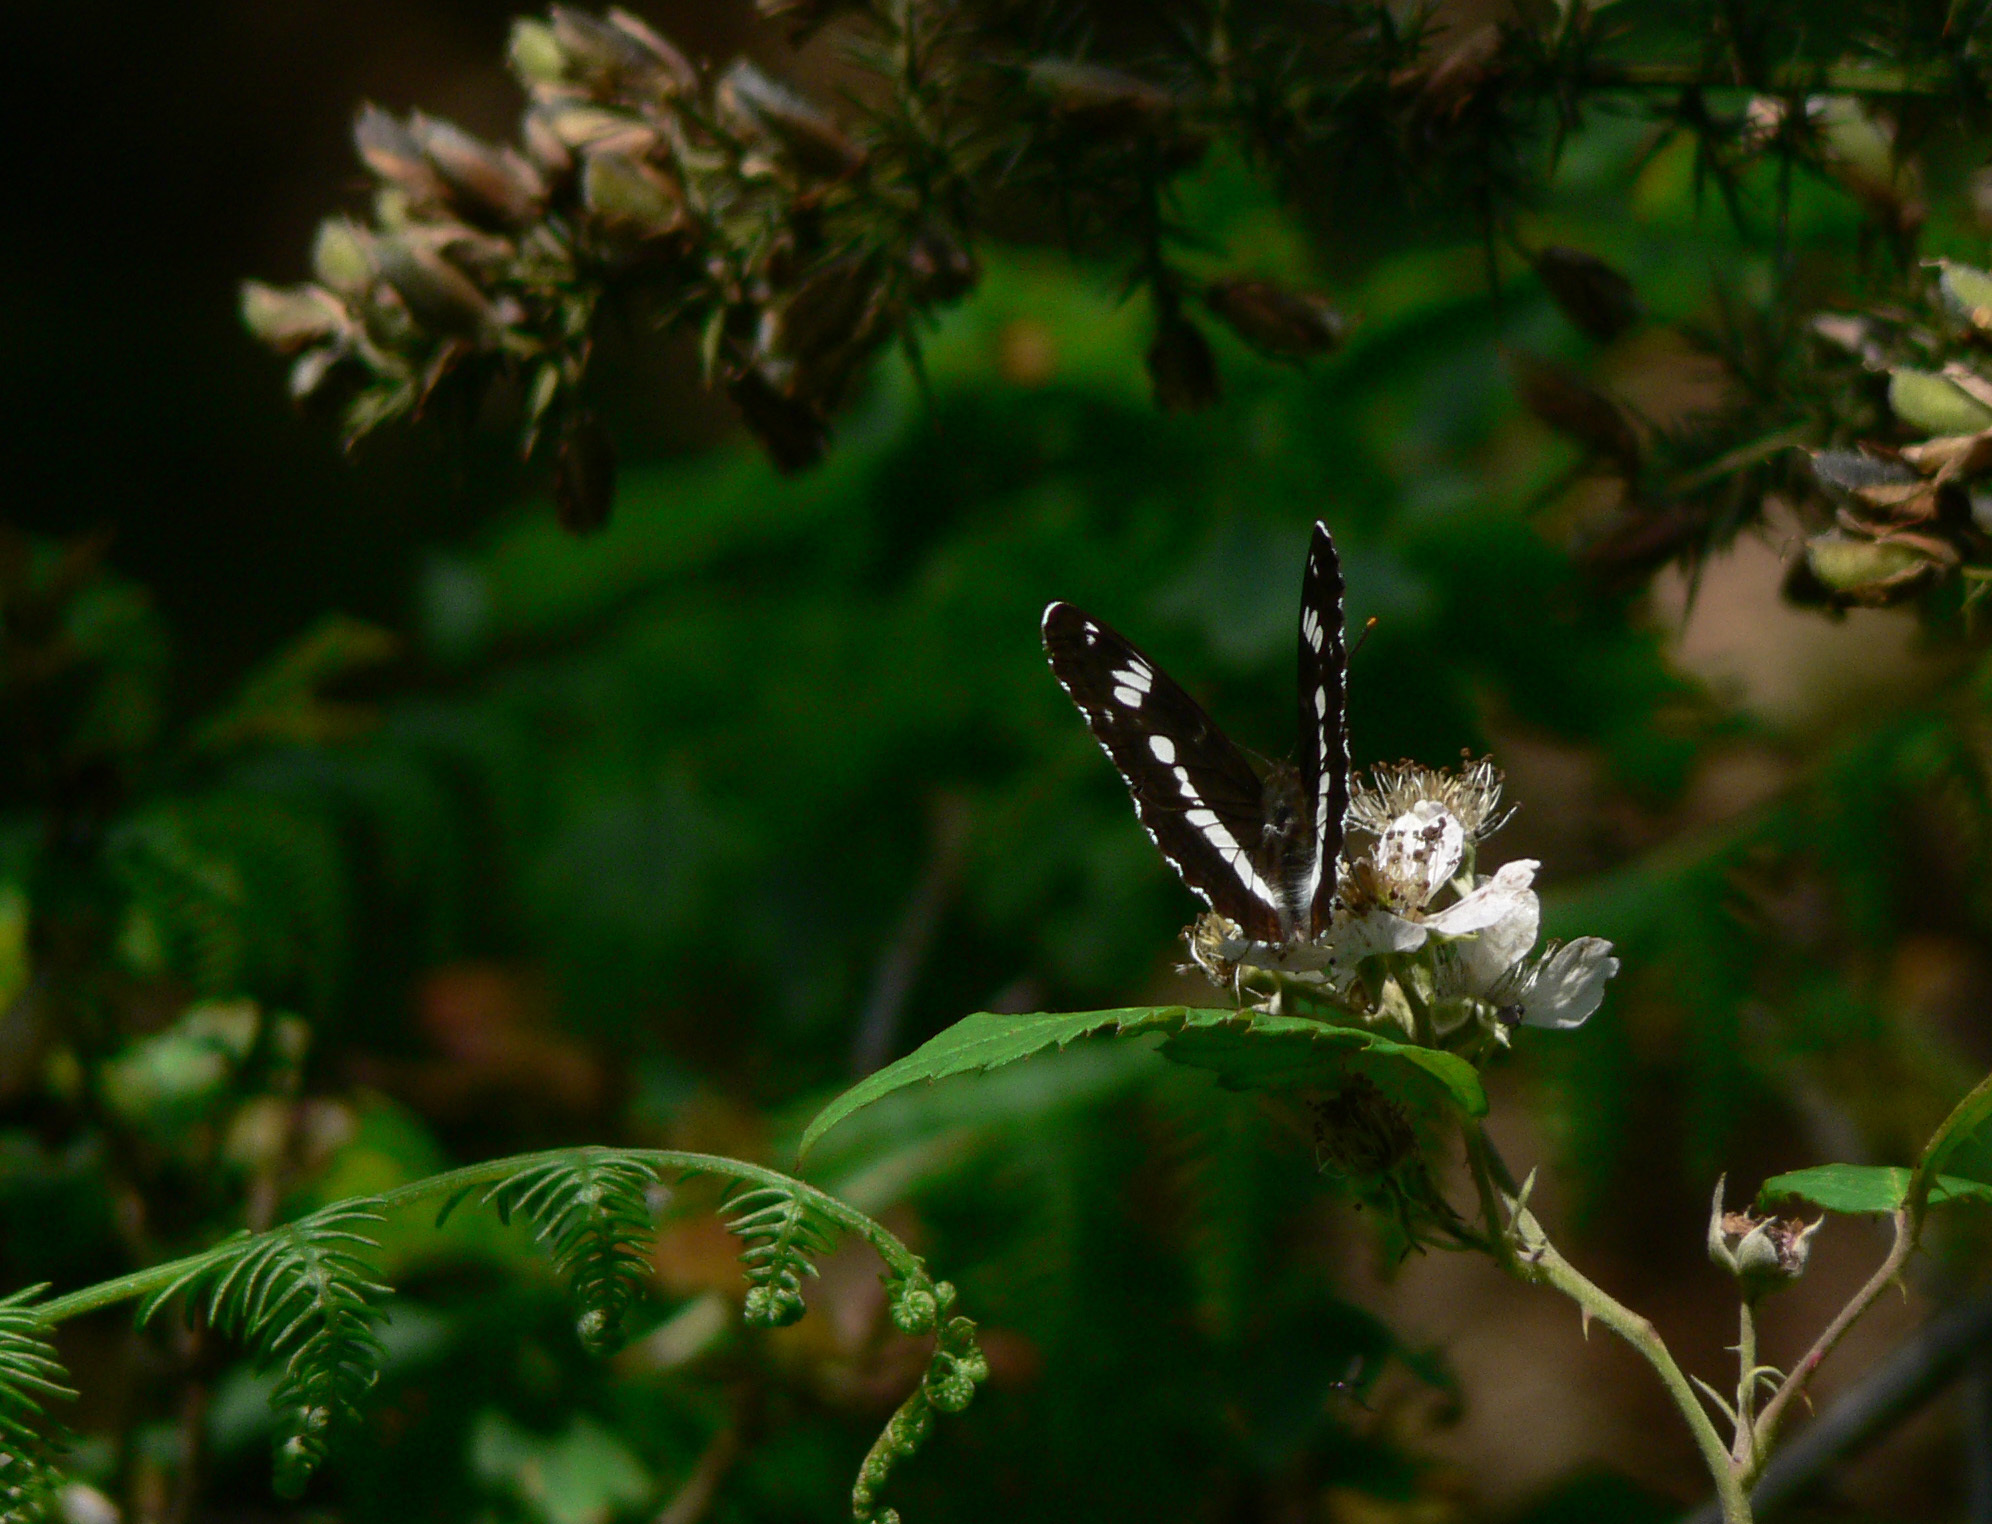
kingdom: Animalia
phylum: Arthropoda
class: Insecta
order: Lepidoptera
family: Nymphalidae
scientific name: Nymphalidae
